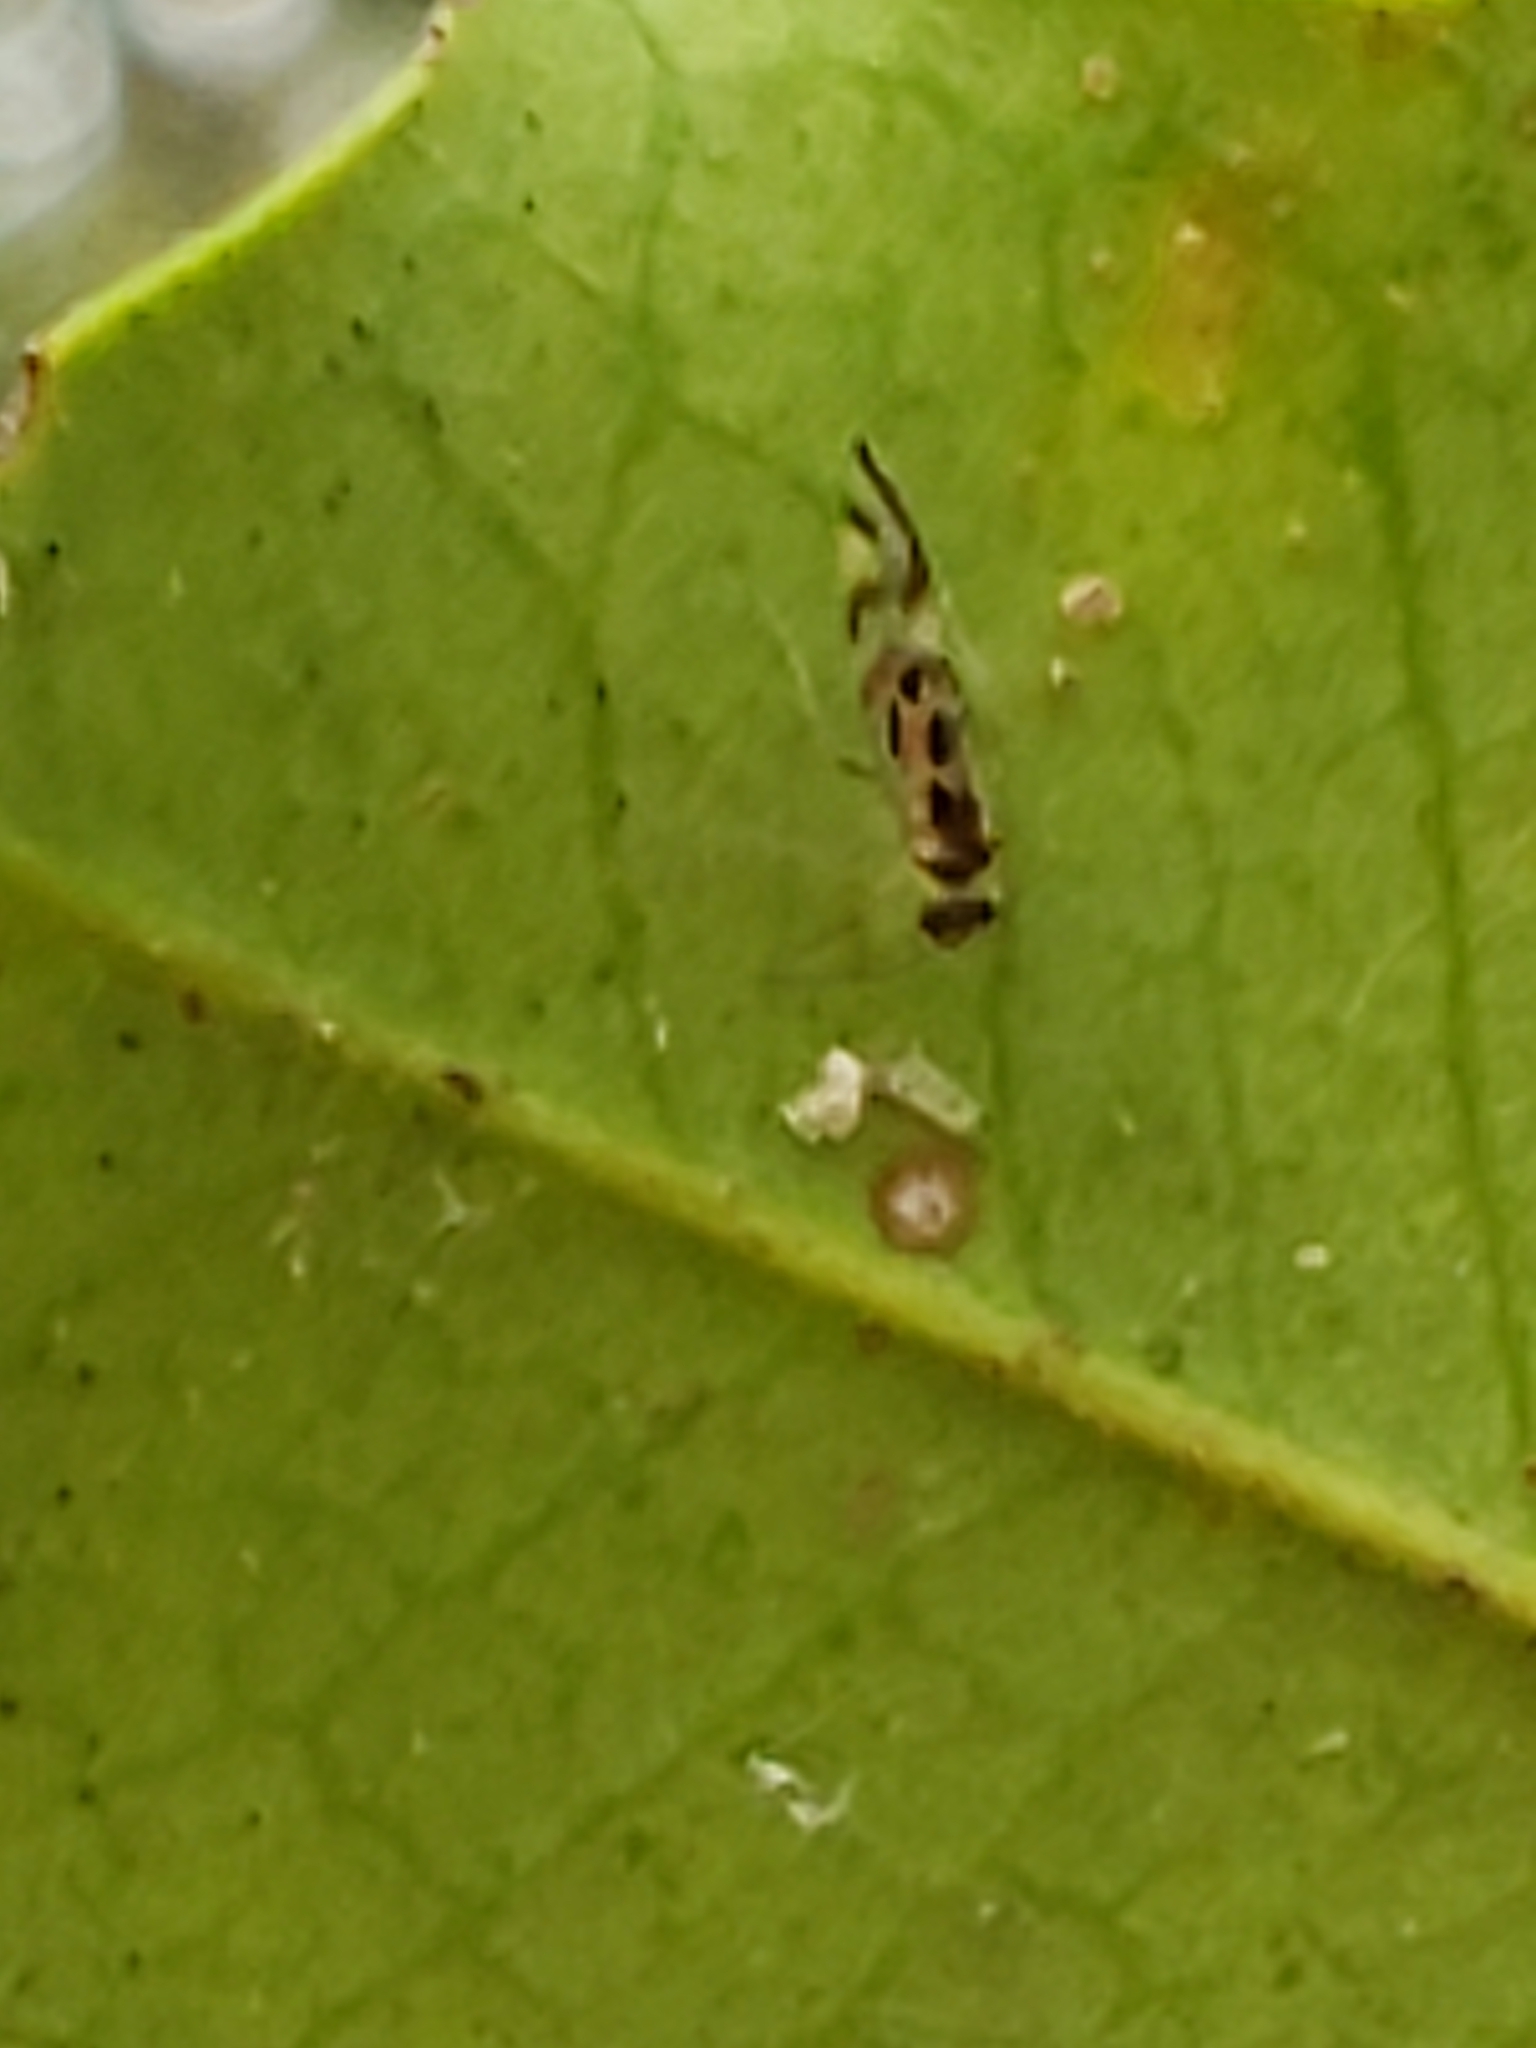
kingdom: Animalia
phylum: Arthropoda
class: Insecta
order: Psocodea
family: Stenopsocidae
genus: Graphopsocus
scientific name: Graphopsocus cruciatus
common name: Lizard bark louse
